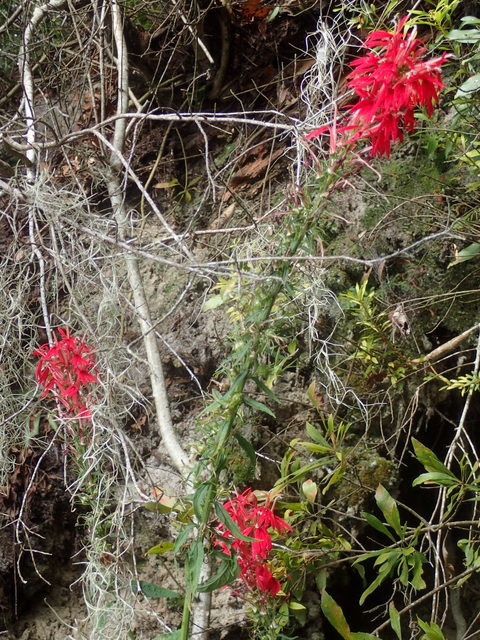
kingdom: Plantae
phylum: Tracheophyta
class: Magnoliopsida
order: Asterales
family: Campanulaceae
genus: Lobelia
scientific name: Lobelia cardinalis
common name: Cardinal flower
